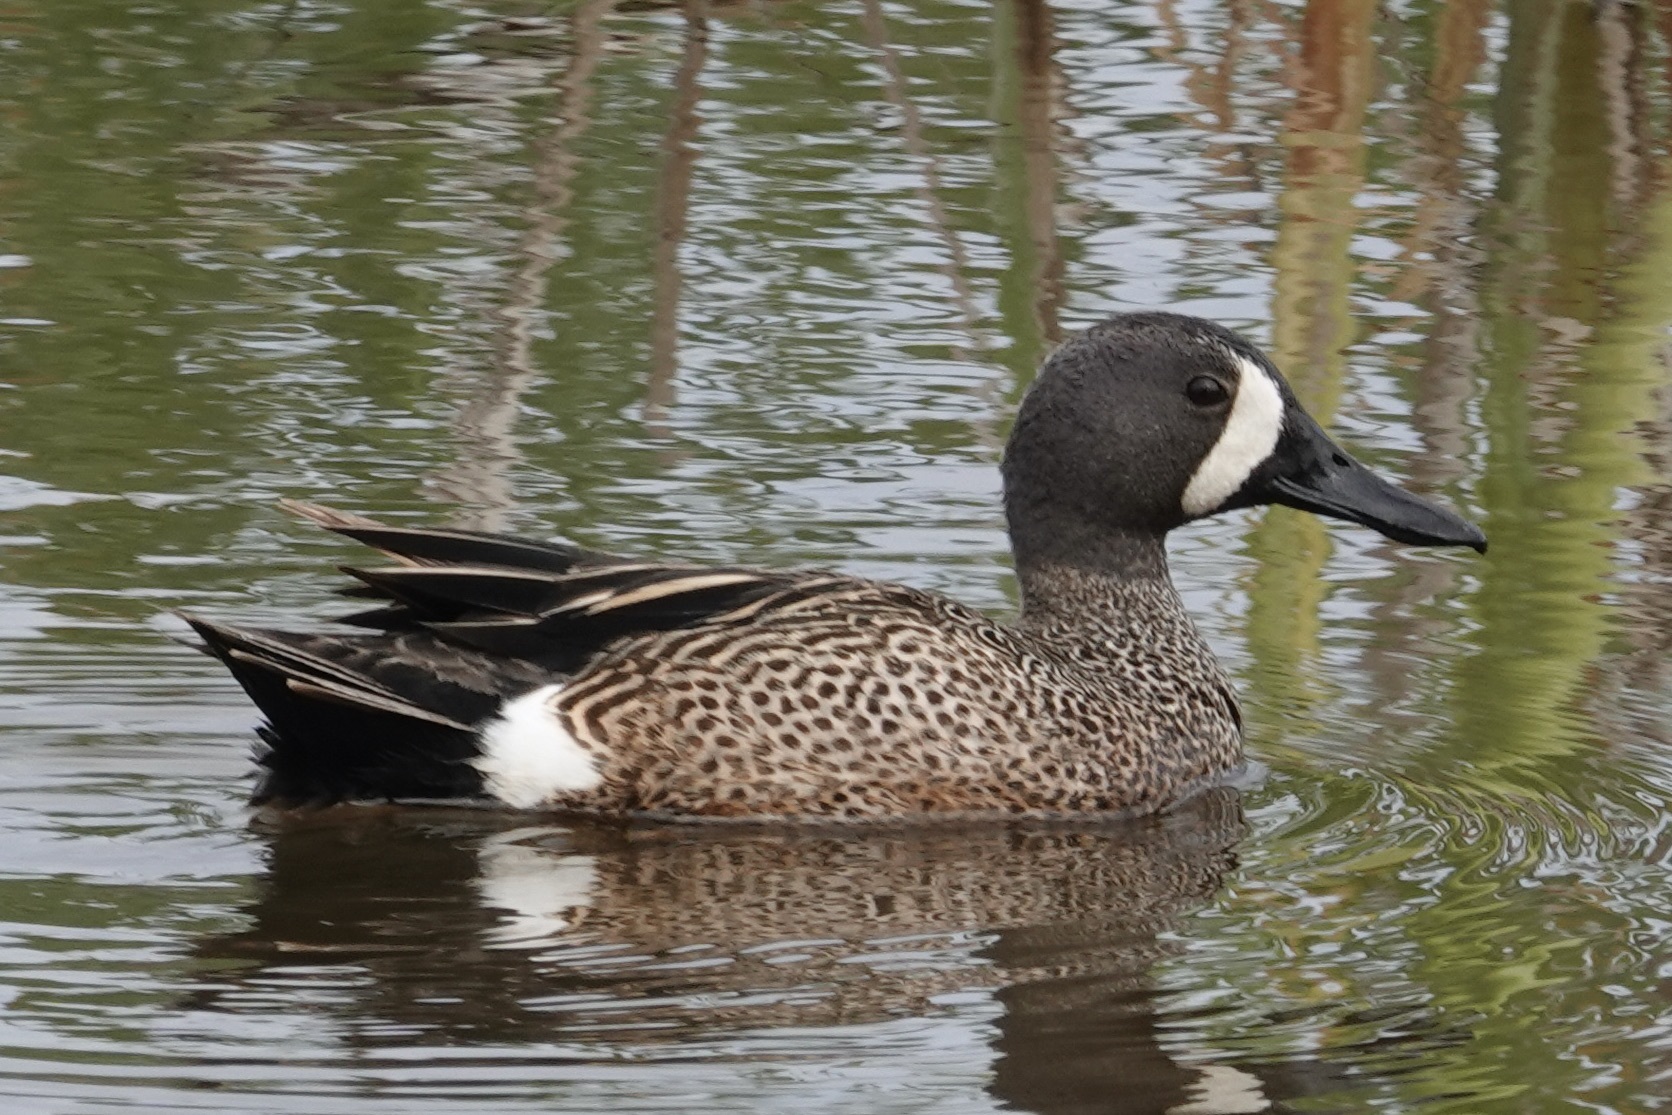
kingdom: Animalia
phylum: Chordata
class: Aves
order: Anseriformes
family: Anatidae
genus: Spatula
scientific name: Spatula discors
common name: Blue-winged teal
